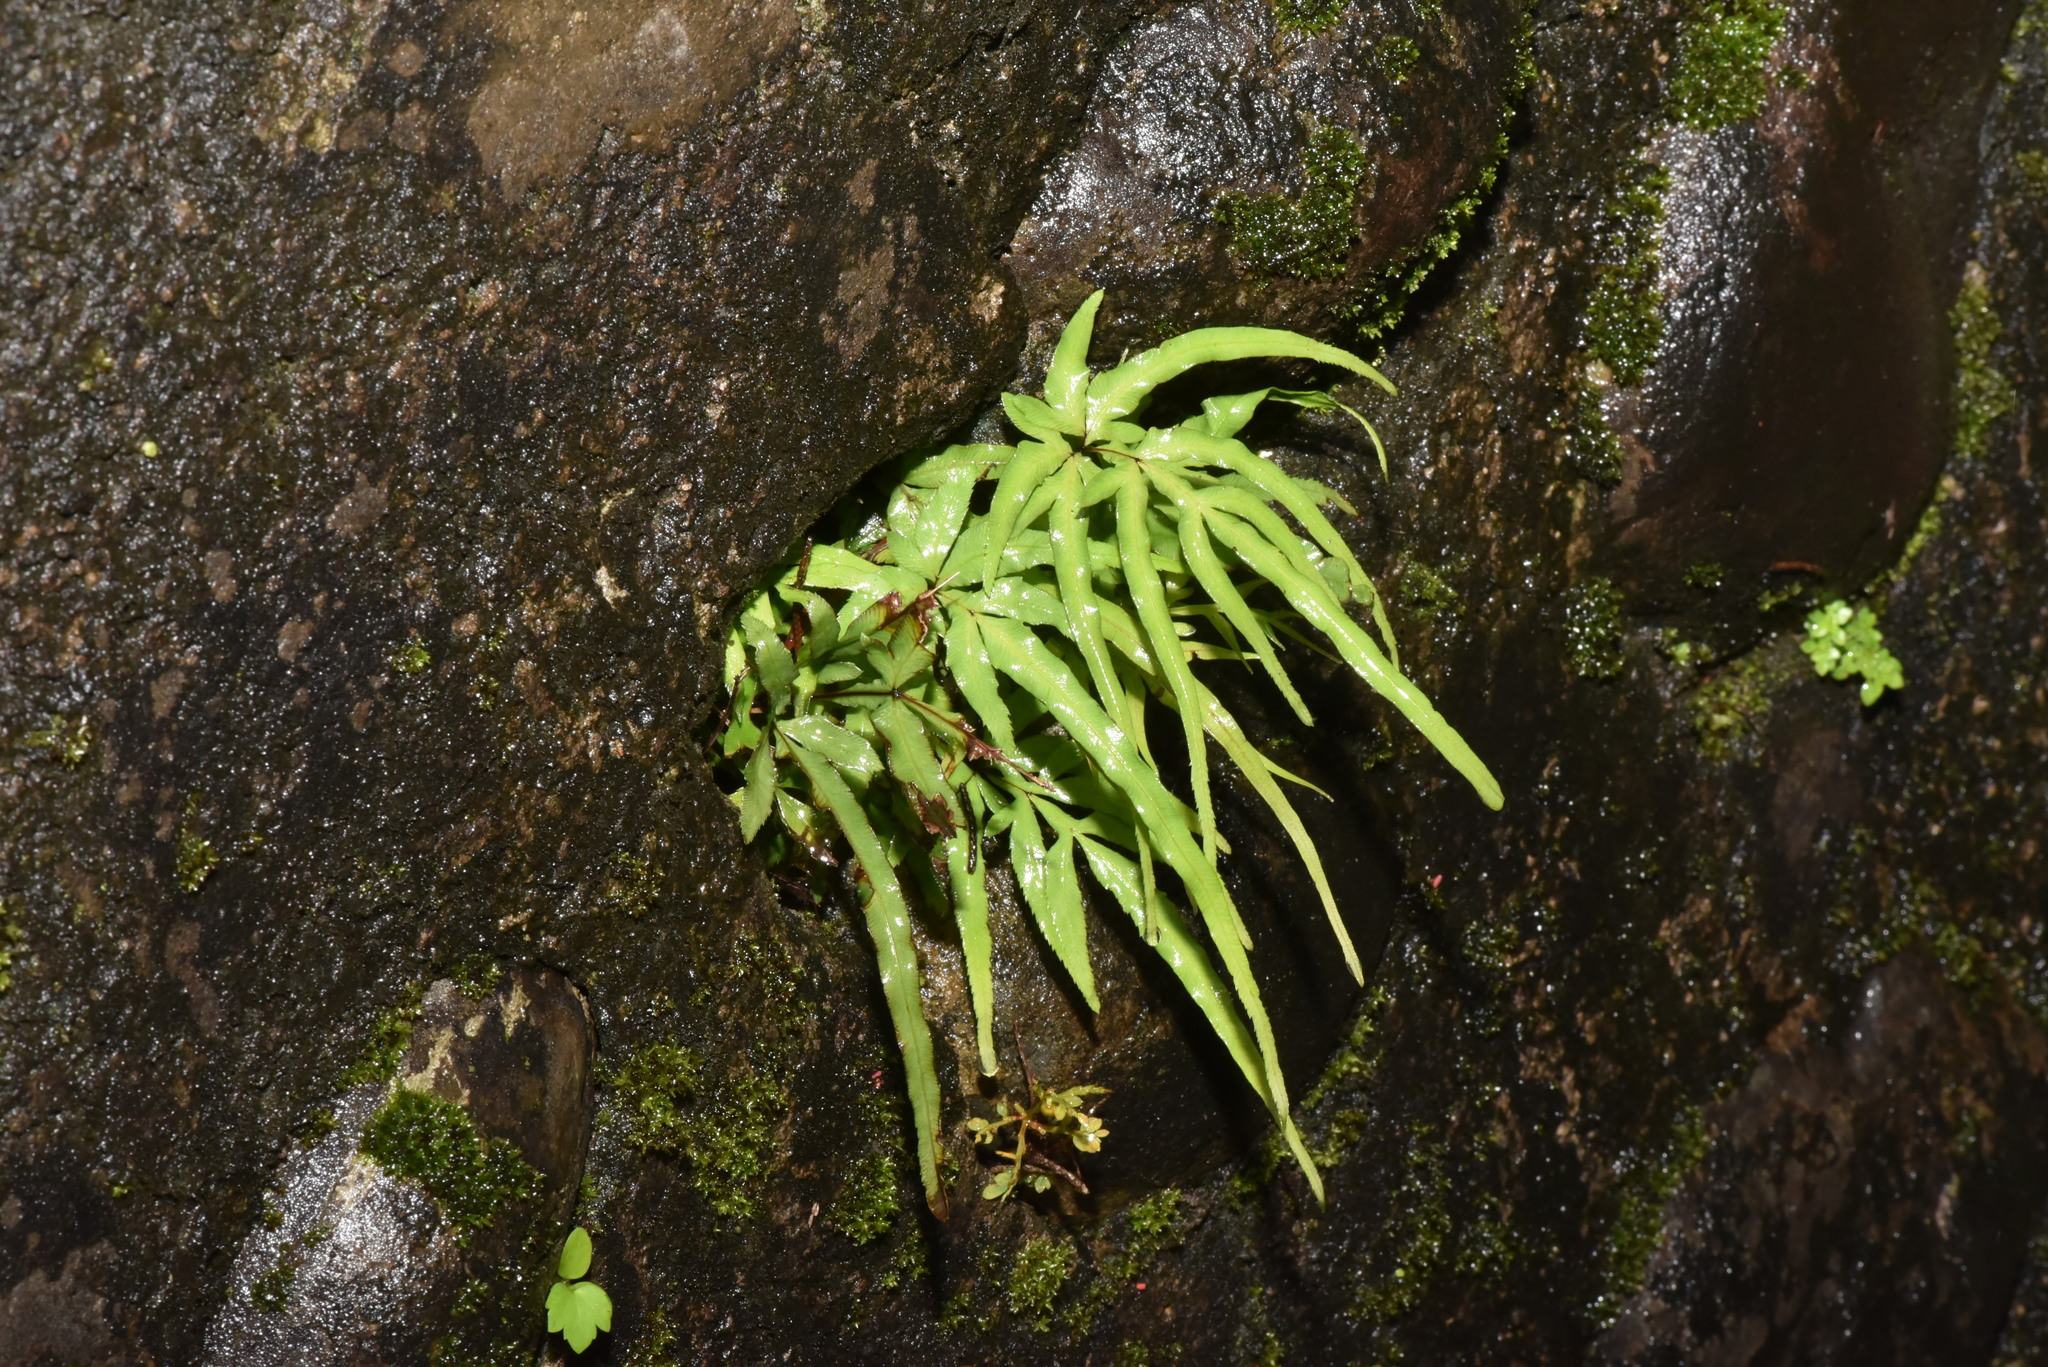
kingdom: Plantae
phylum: Tracheophyta
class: Polypodiopsida
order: Polypodiales
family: Pteridaceae
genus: Pteris
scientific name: Pteris multifida
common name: Spider brake
